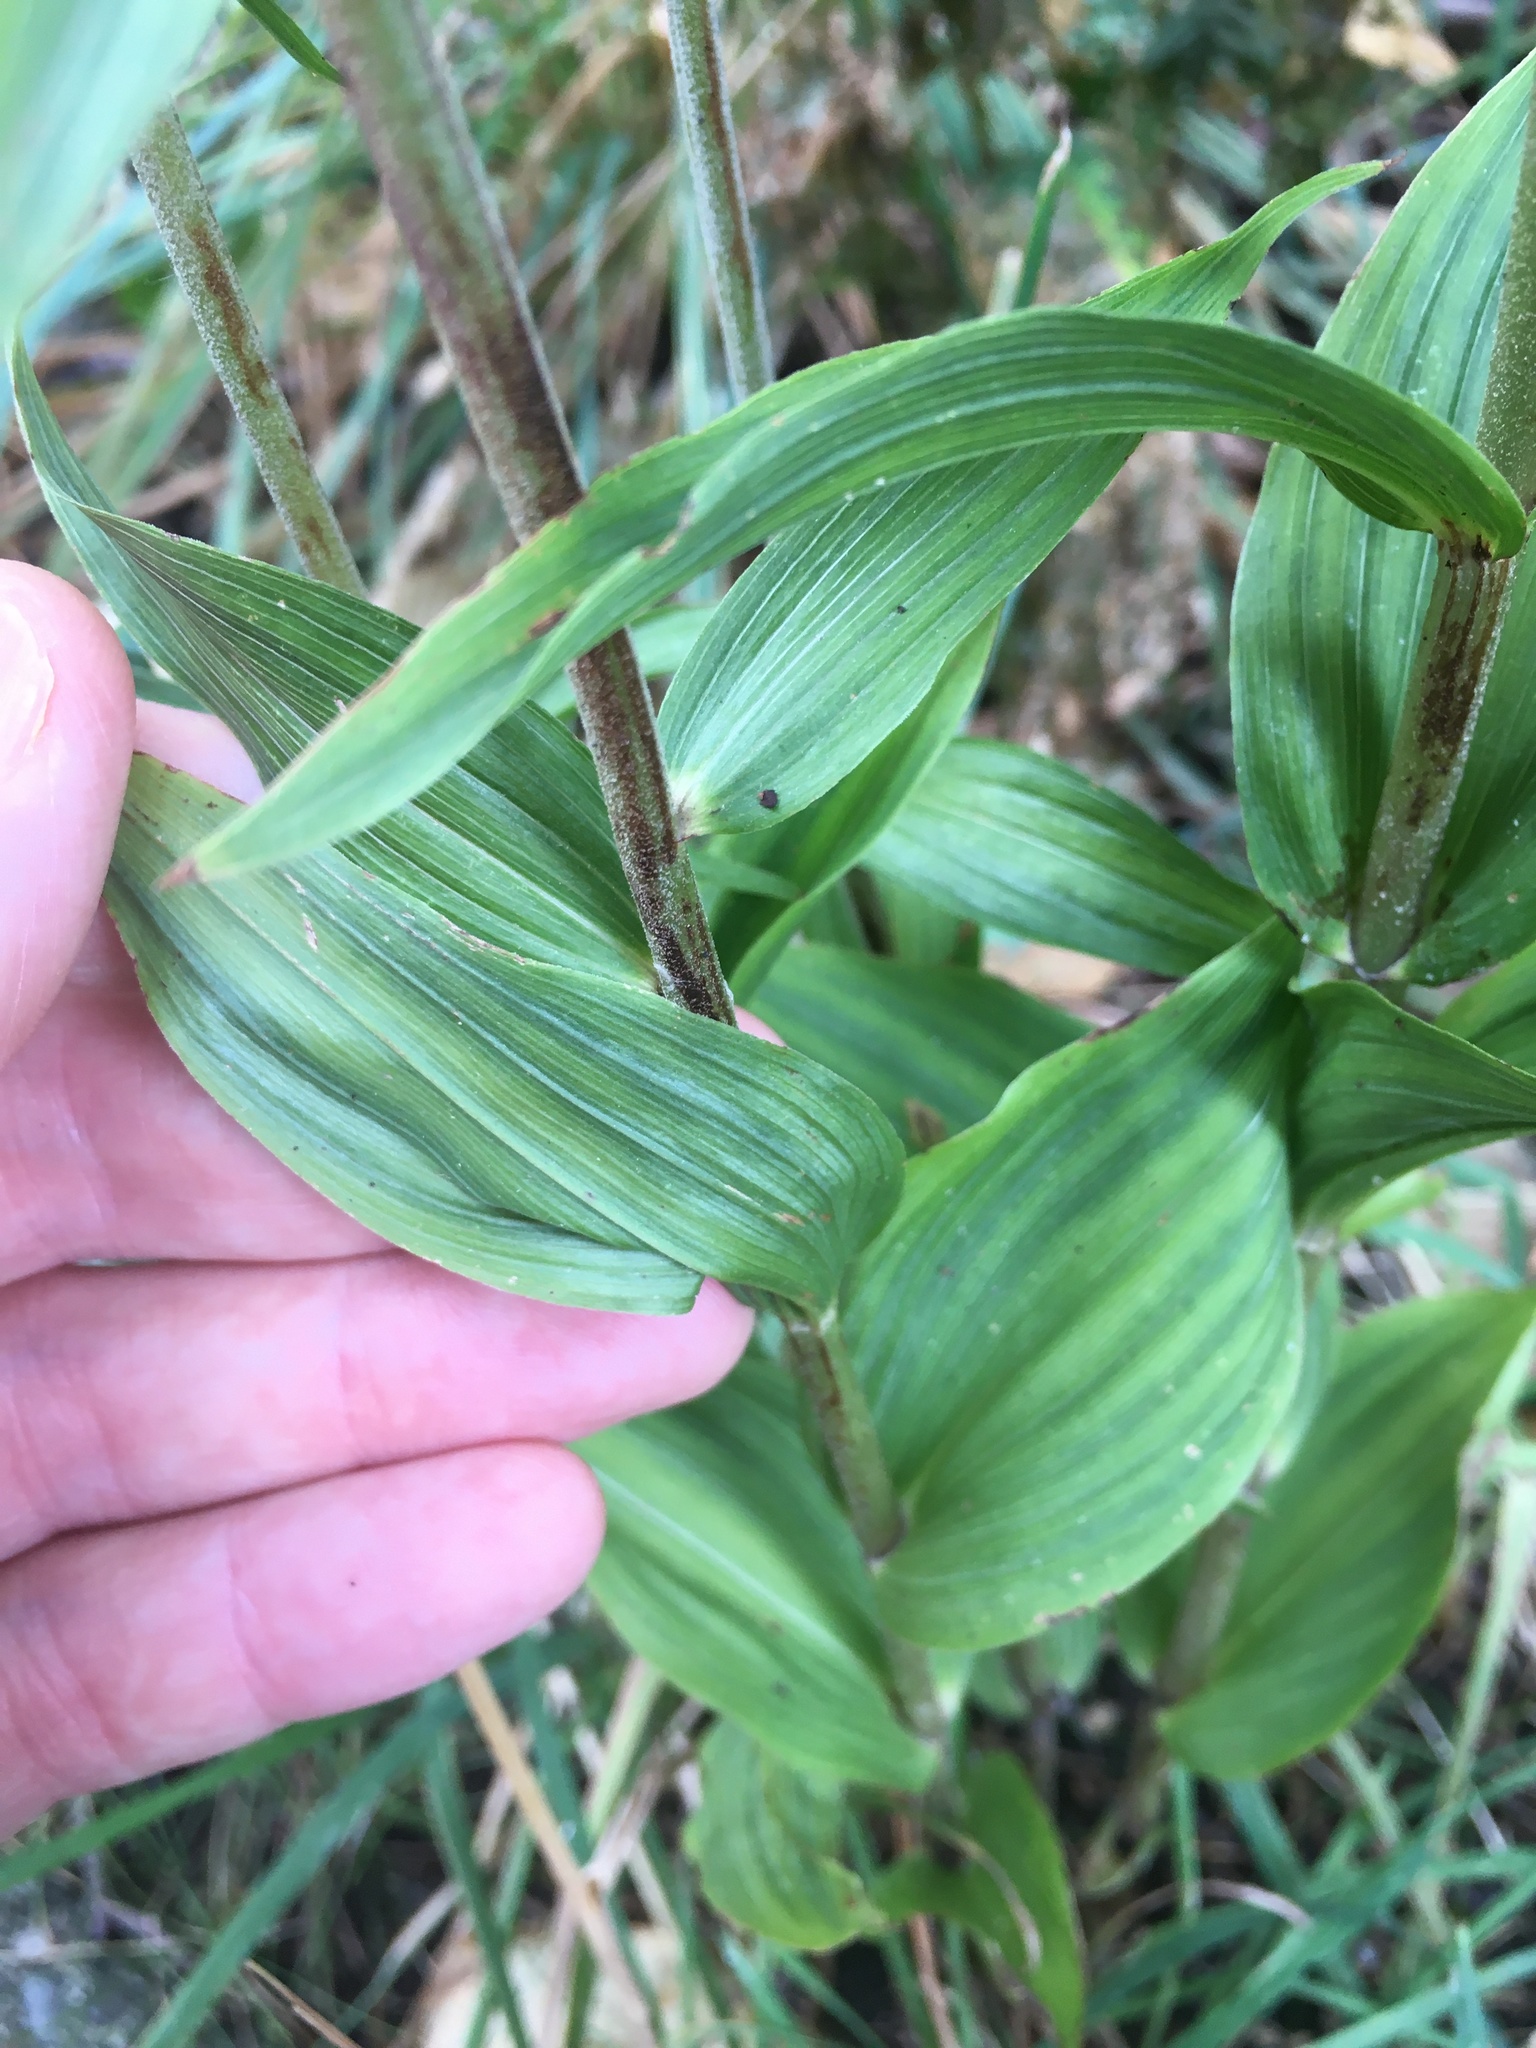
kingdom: Plantae
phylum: Tracheophyta
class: Liliopsida
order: Asparagales
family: Orchidaceae
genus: Epipactis
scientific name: Epipactis helleborine
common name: Broad-leaved helleborine
